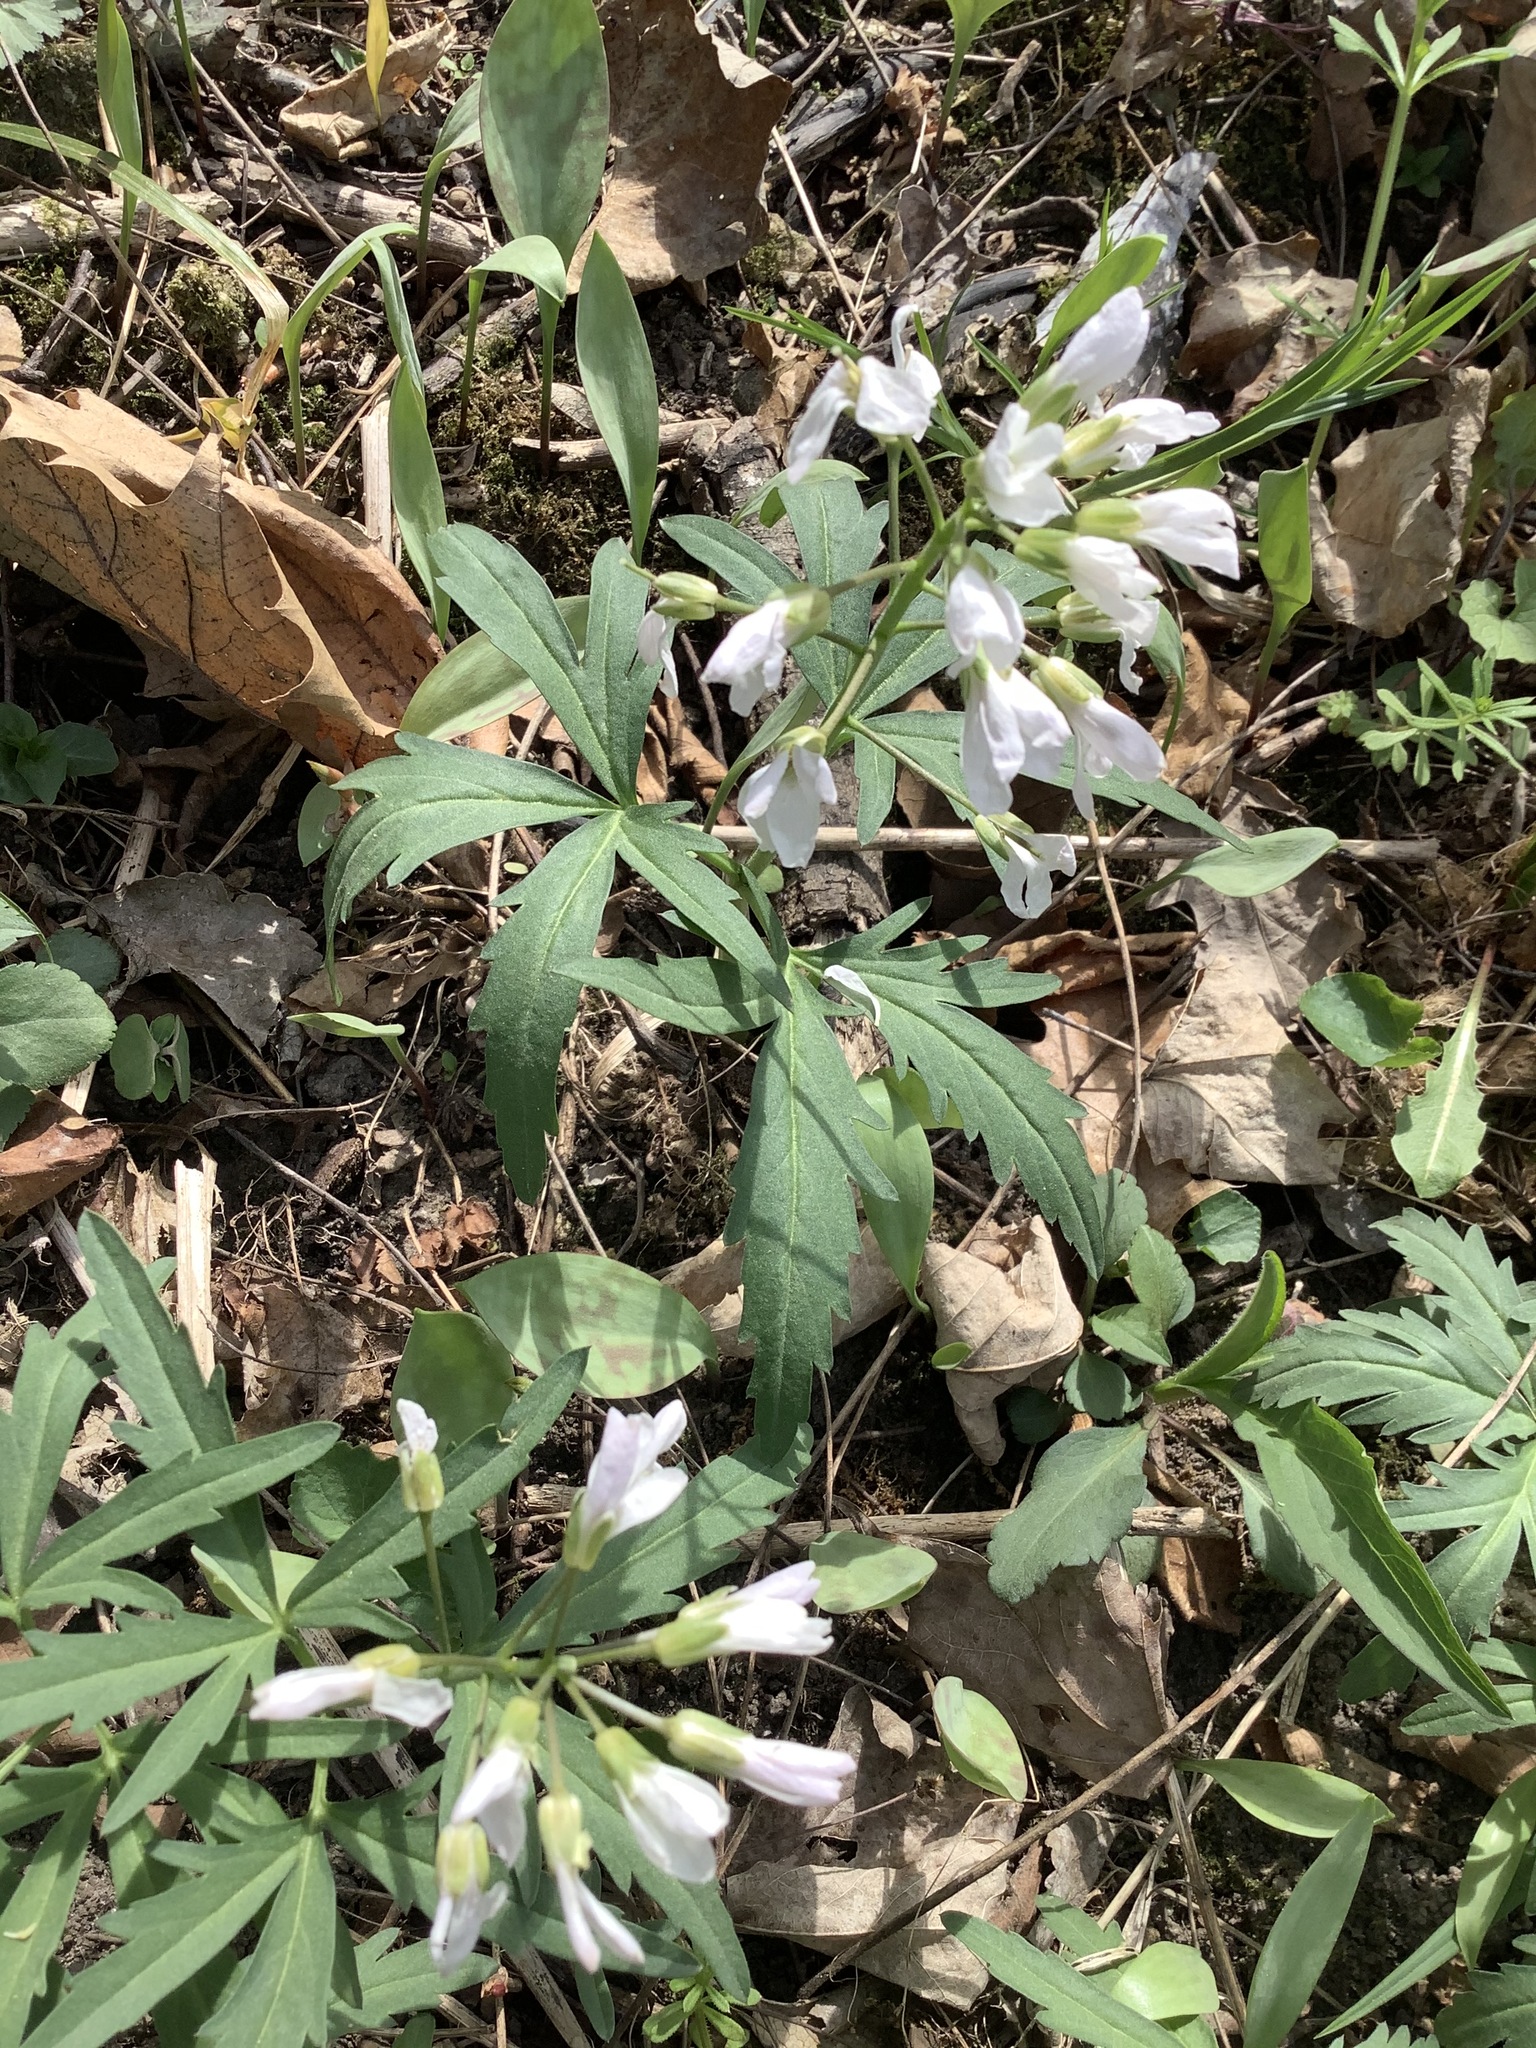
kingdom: Plantae
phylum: Tracheophyta
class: Magnoliopsida
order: Brassicales
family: Brassicaceae
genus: Cardamine
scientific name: Cardamine concatenata
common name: Cut-leaf toothcup
